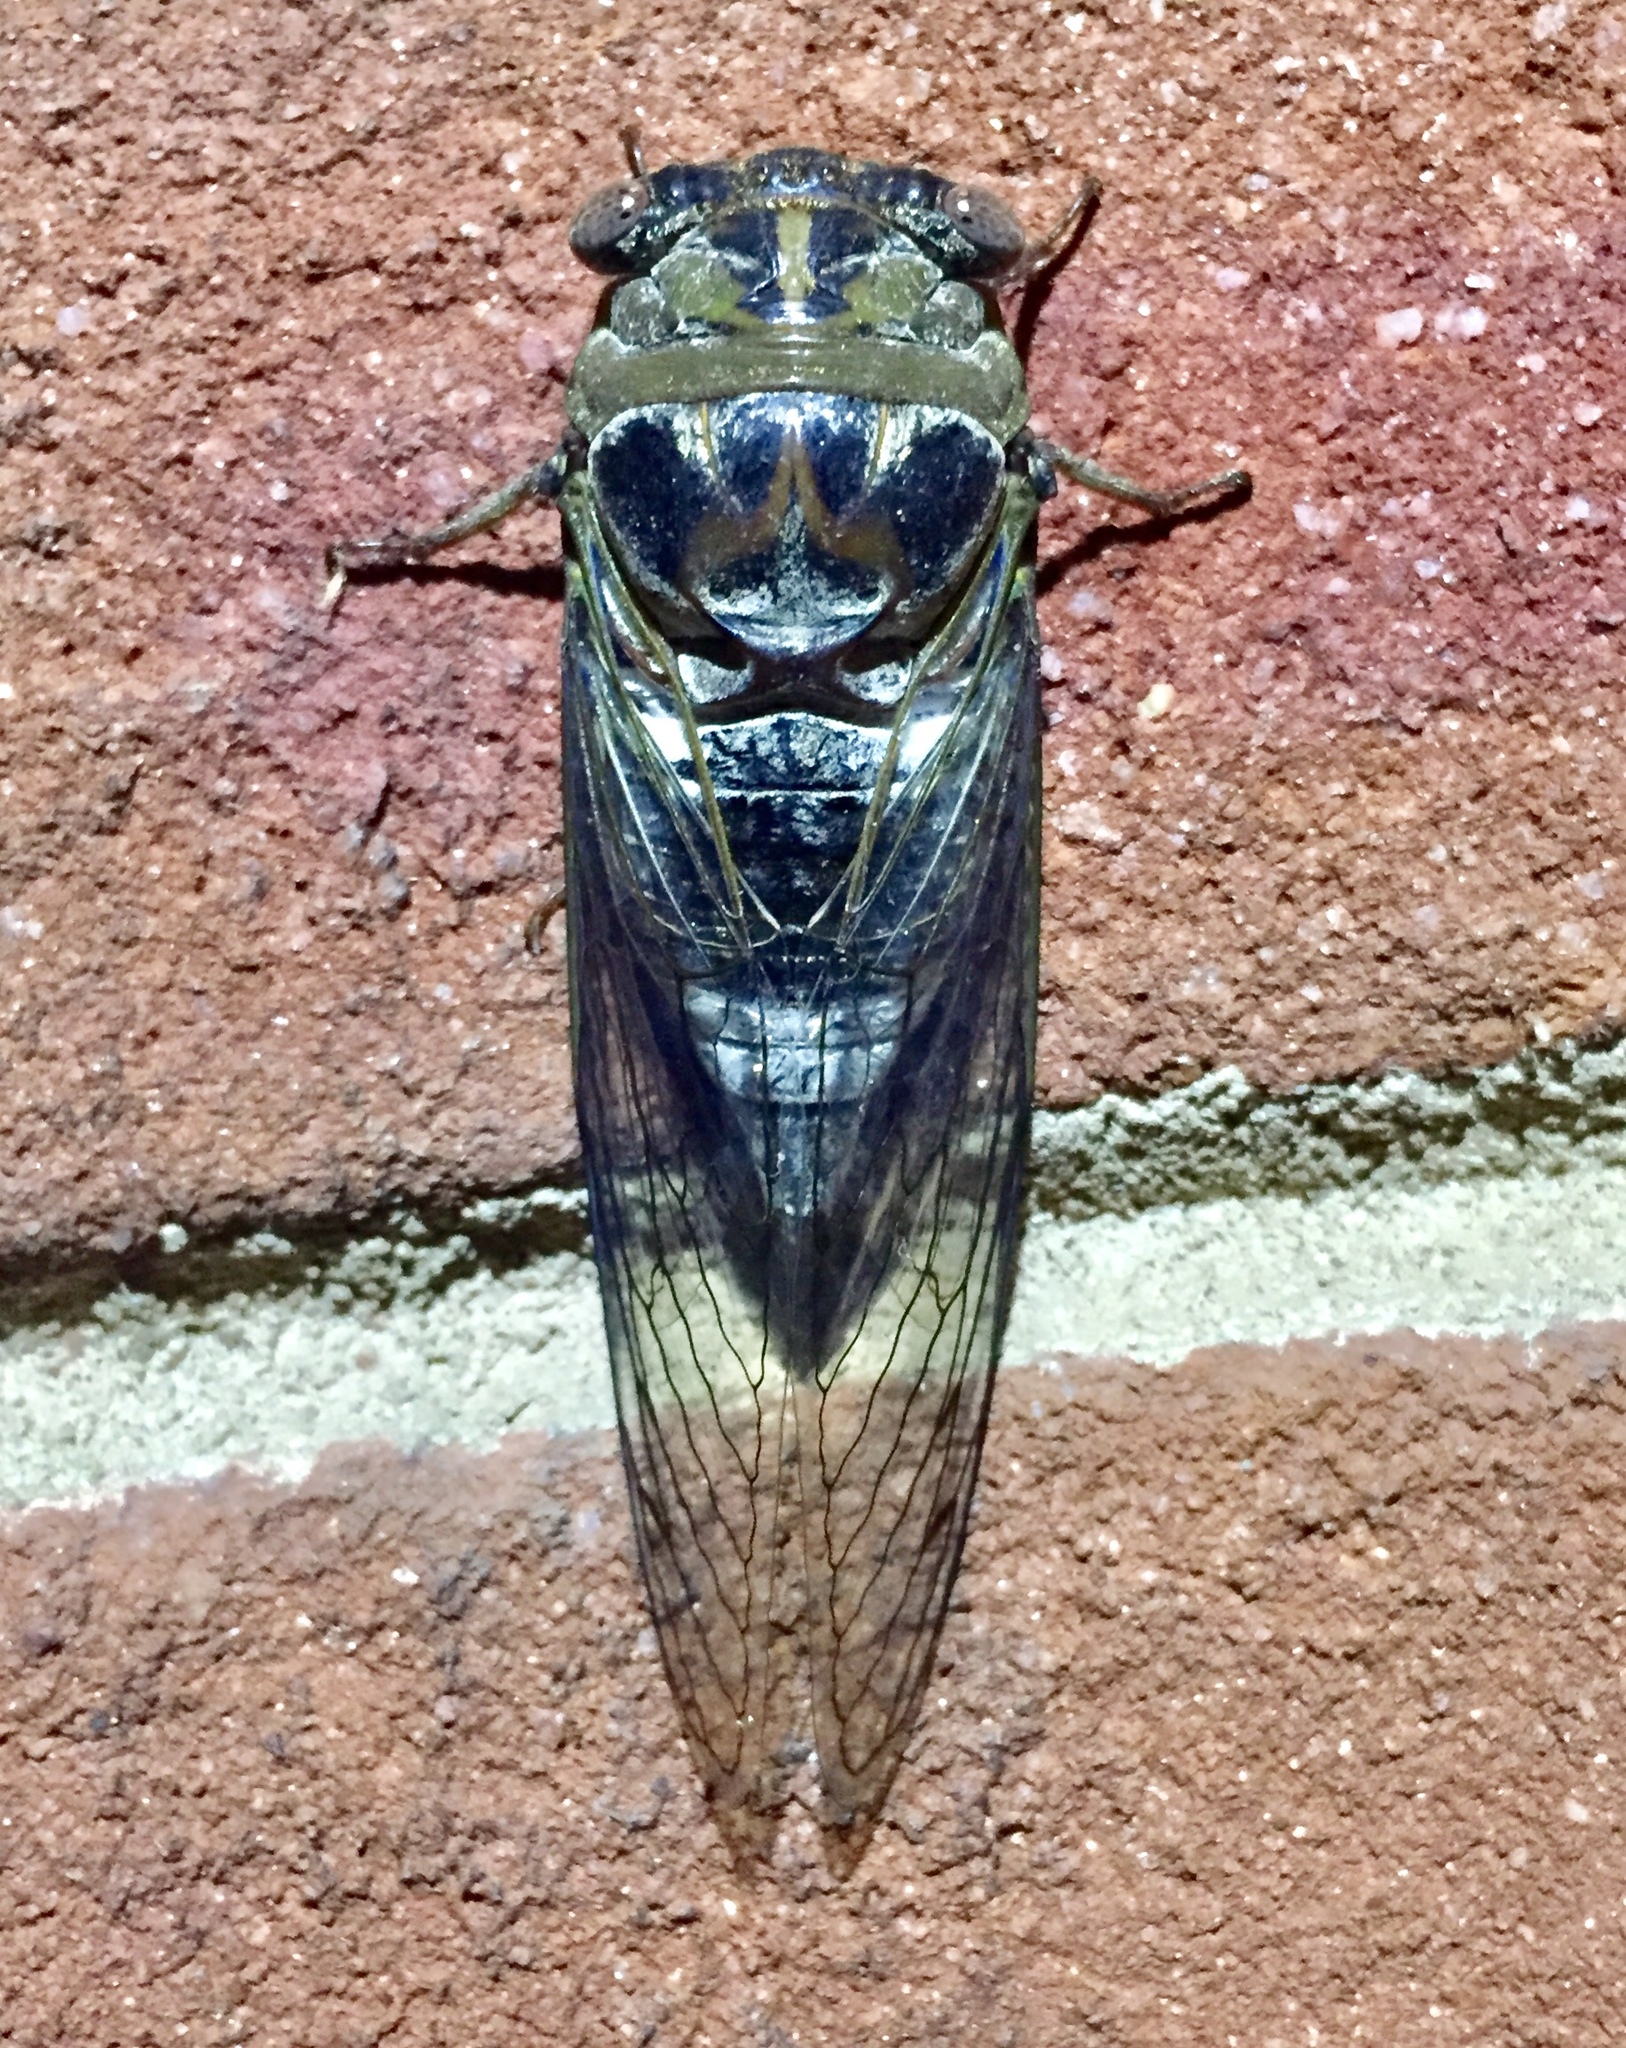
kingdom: Animalia
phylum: Arthropoda
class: Insecta
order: Hemiptera
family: Cicadidae
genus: Diceroprocta
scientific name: Diceroprocta grossa
